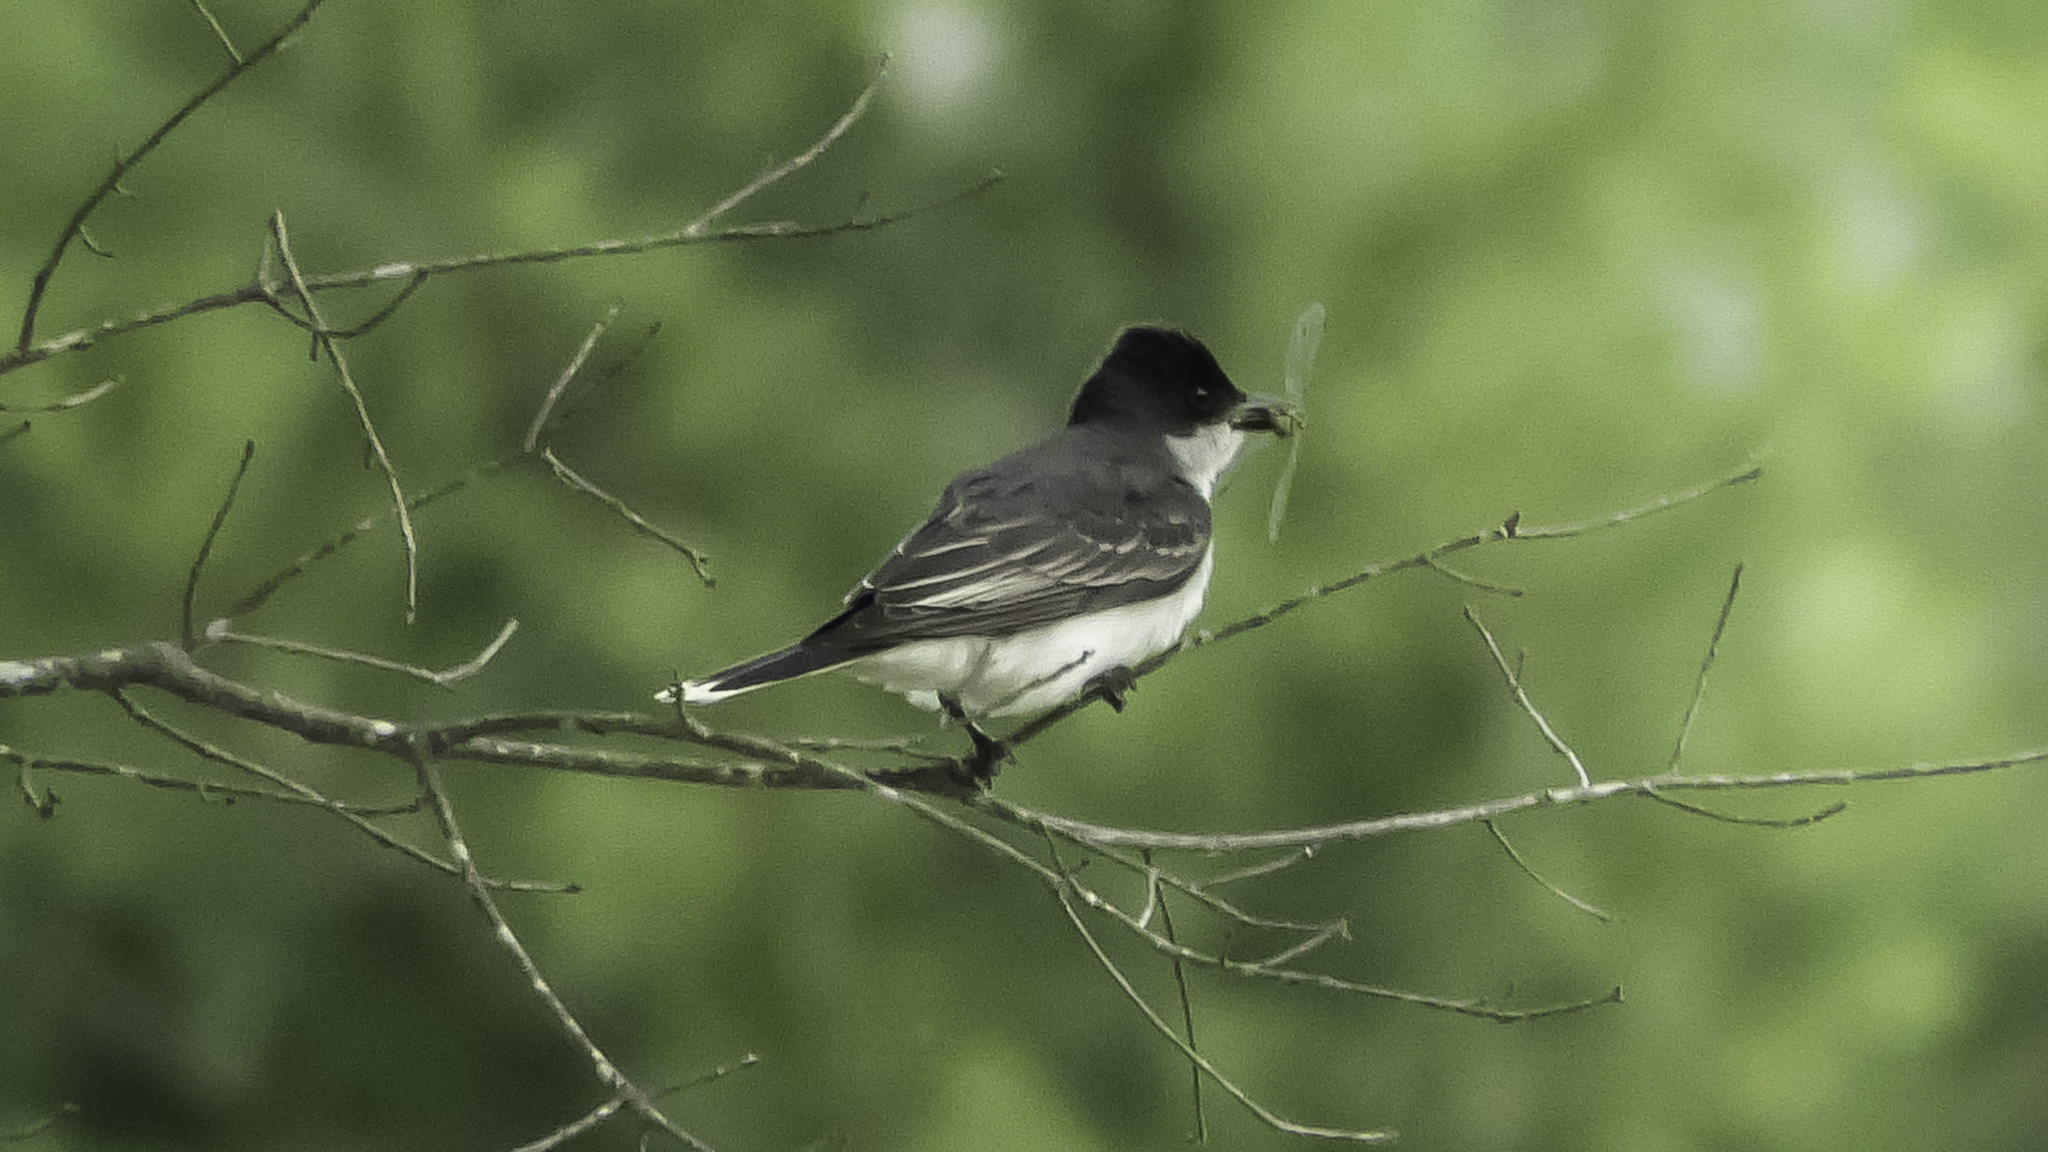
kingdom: Animalia
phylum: Chordata
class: Aves
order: Passeriformes
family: Tyrannidae
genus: Tyrannus
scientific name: Tyrannus tyrannus
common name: Eastern kingbird
